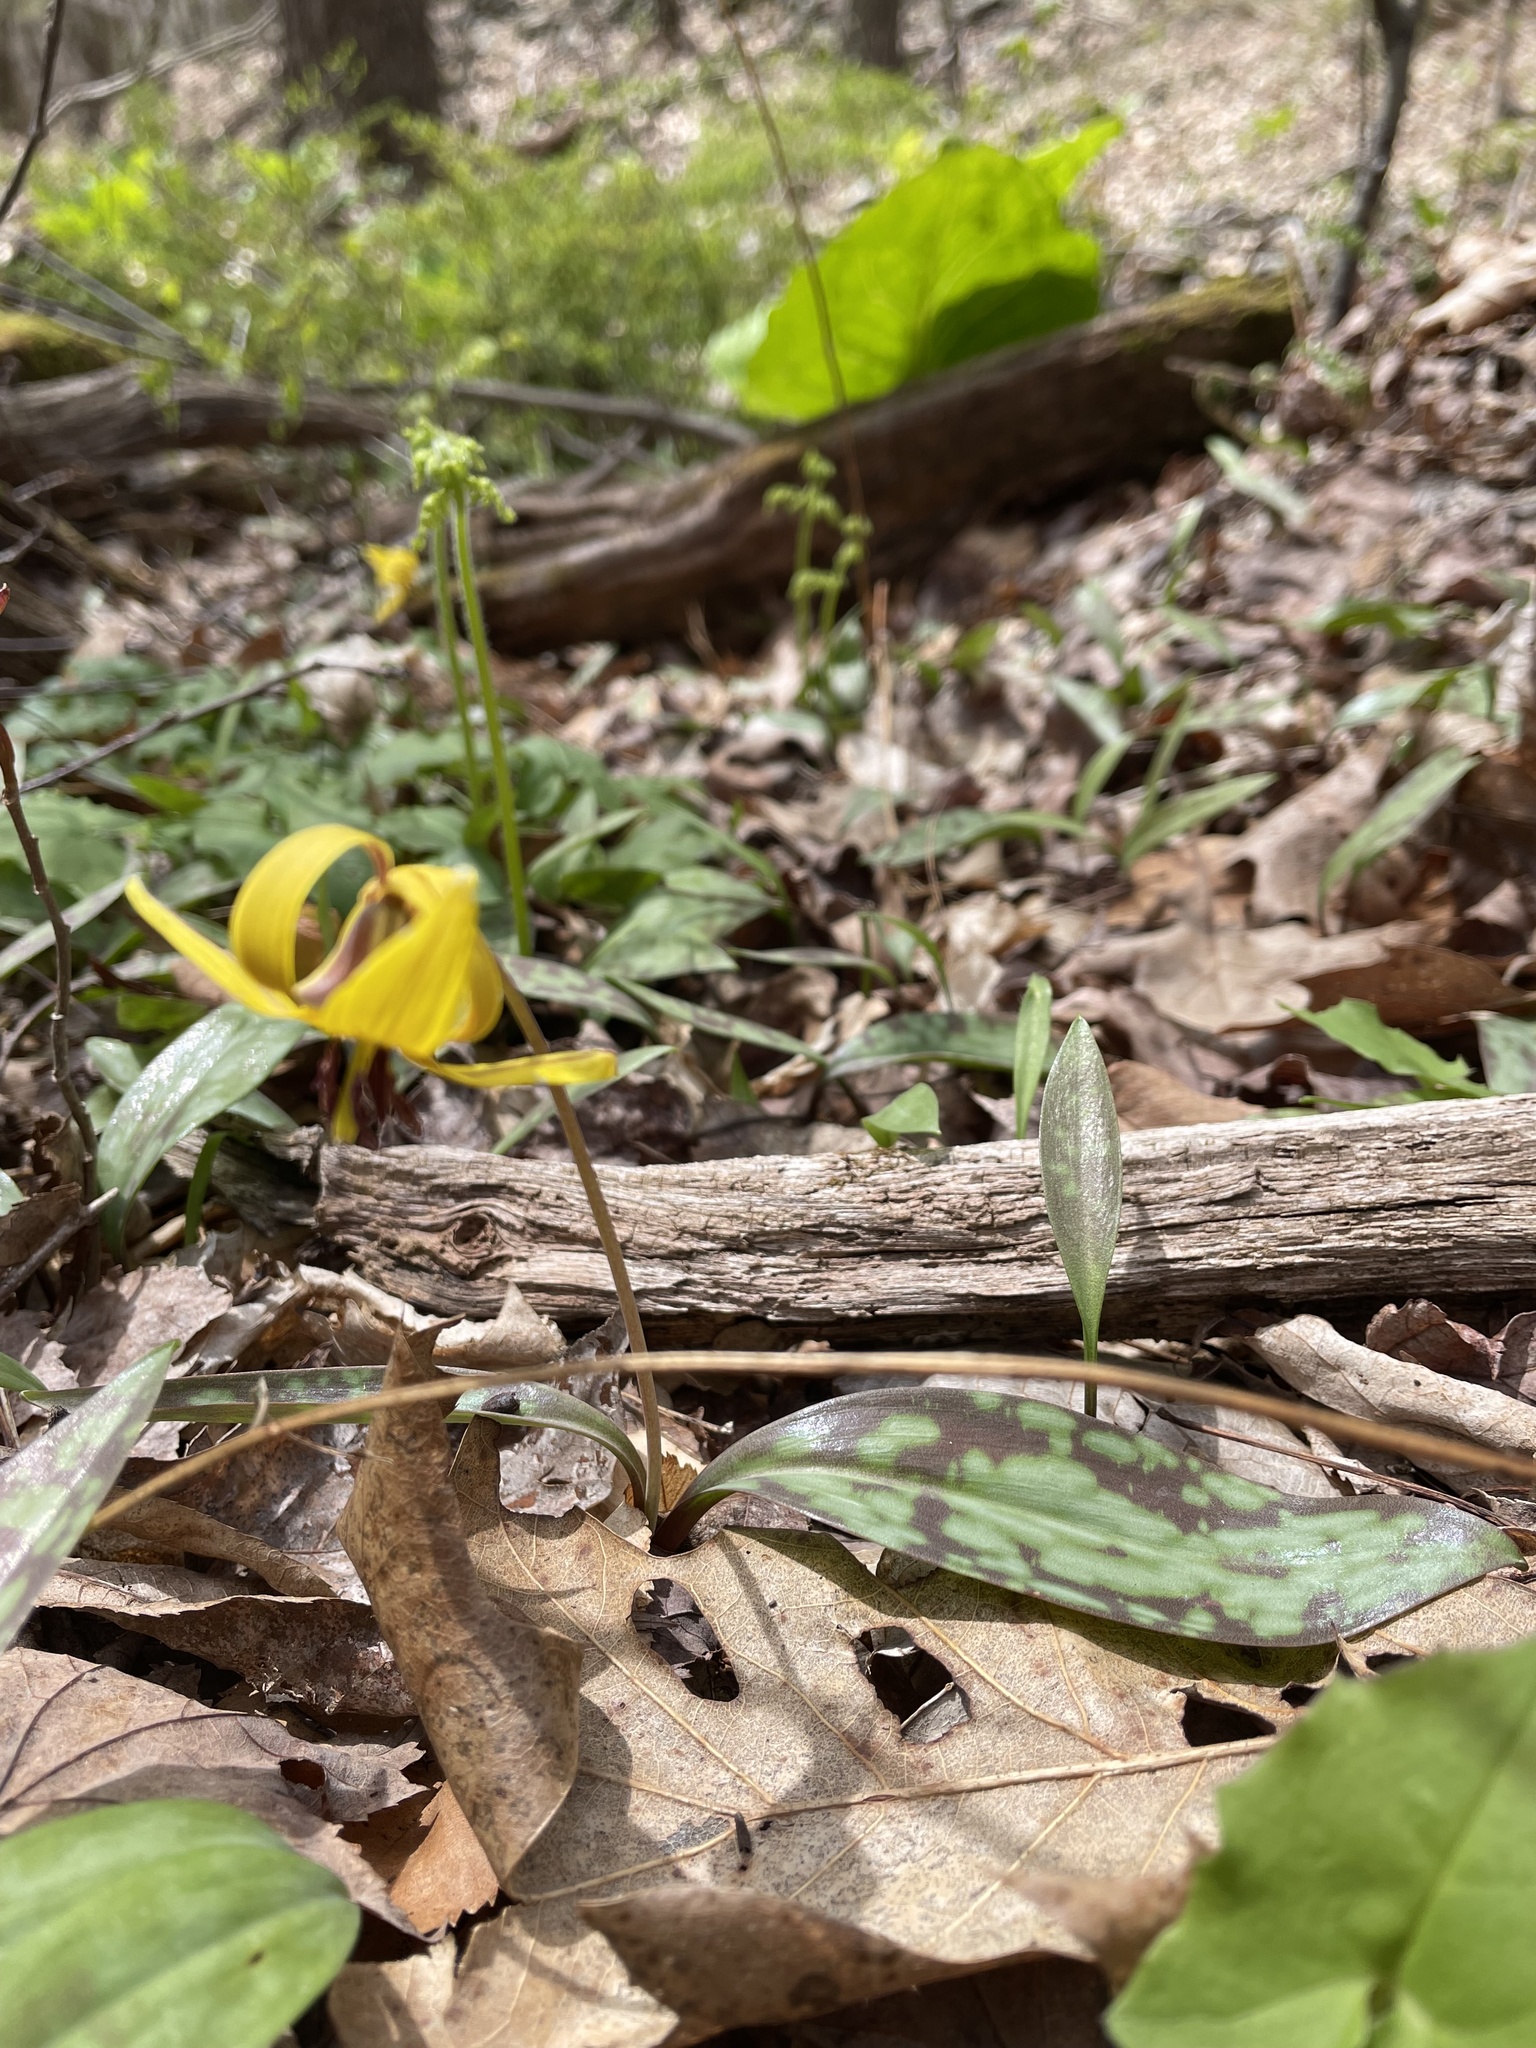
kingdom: Plantae
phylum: Tracheophyta
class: Liliopsida
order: Liliales
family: Liliaceae
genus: Erythronium
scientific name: Erythronium americanum
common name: Yellow adder's-tongue
